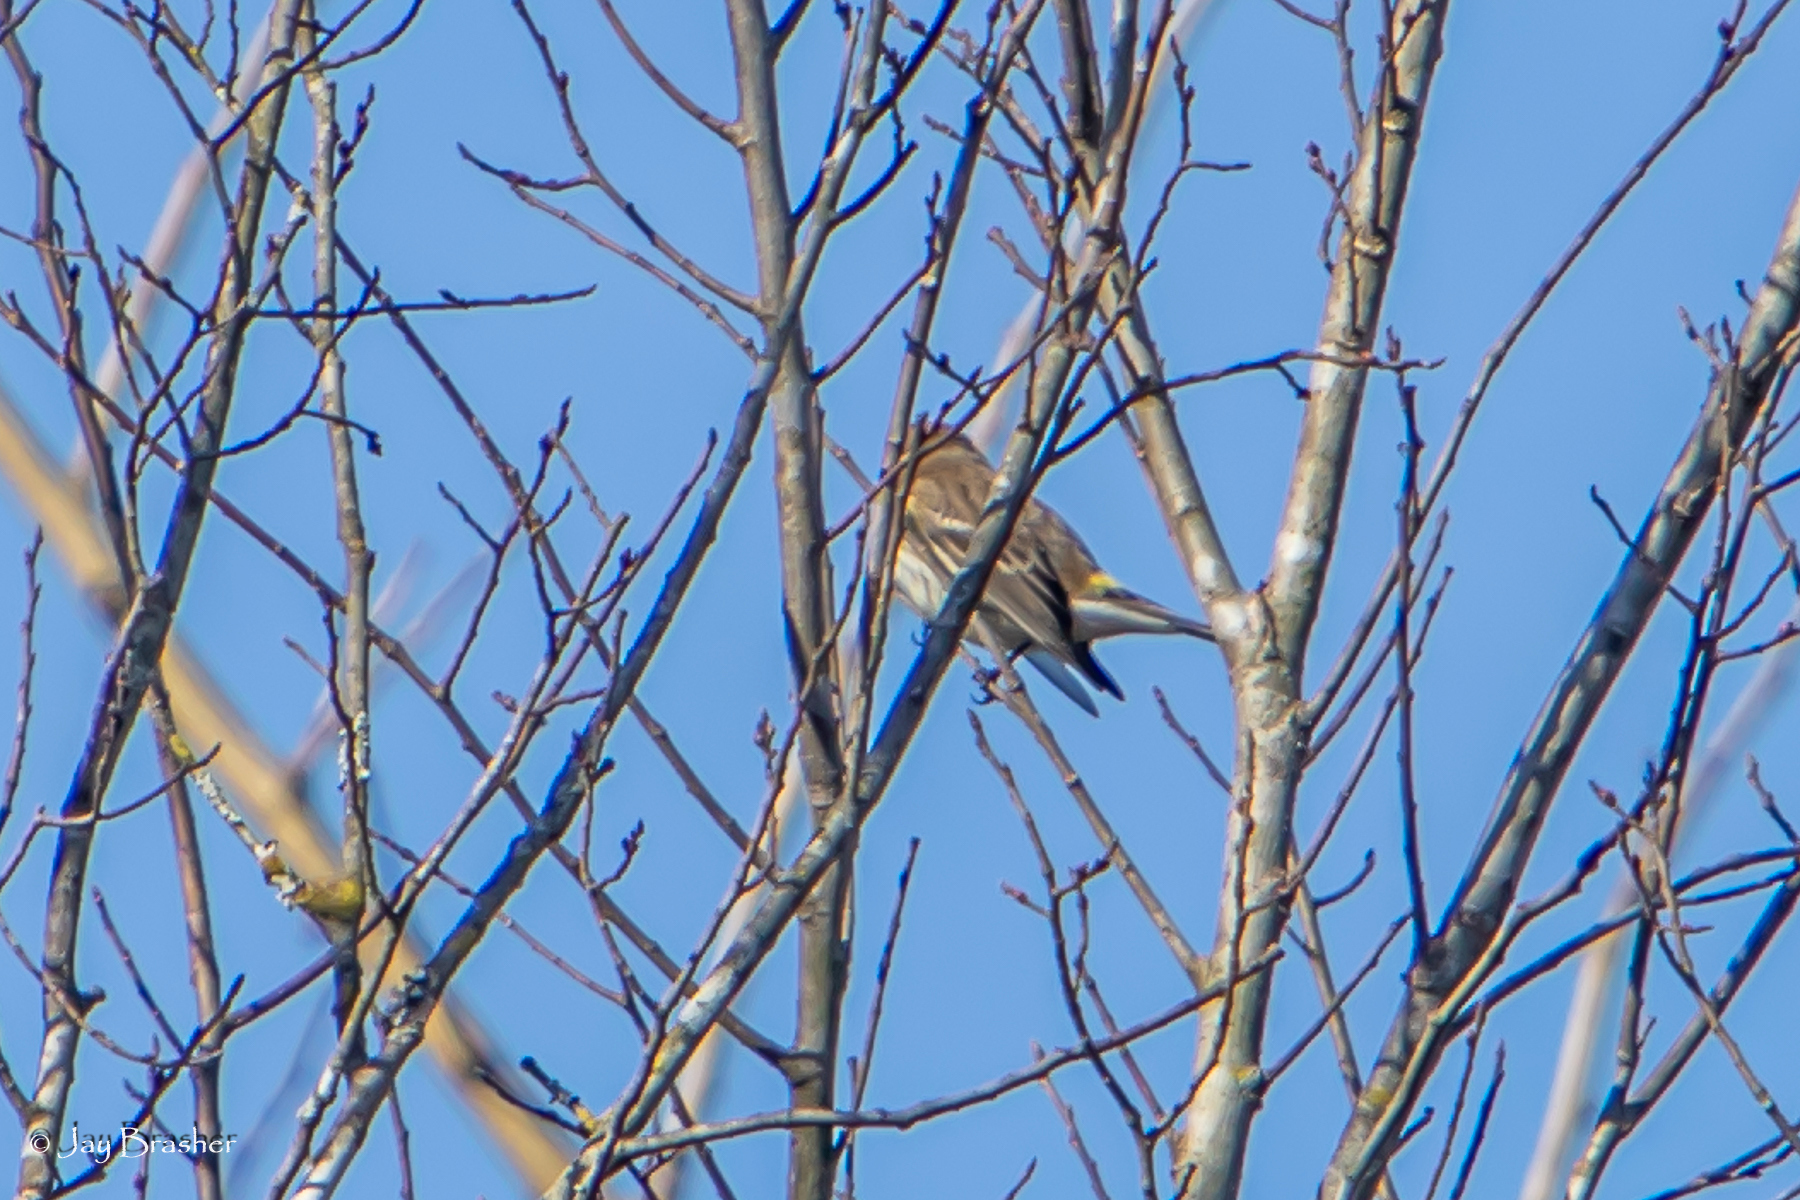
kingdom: Animalia
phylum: Chordata
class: Aves
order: Passeriformes
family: Parulidae
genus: Setophaga
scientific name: Setophaga coronata
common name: Myrtle warbler
